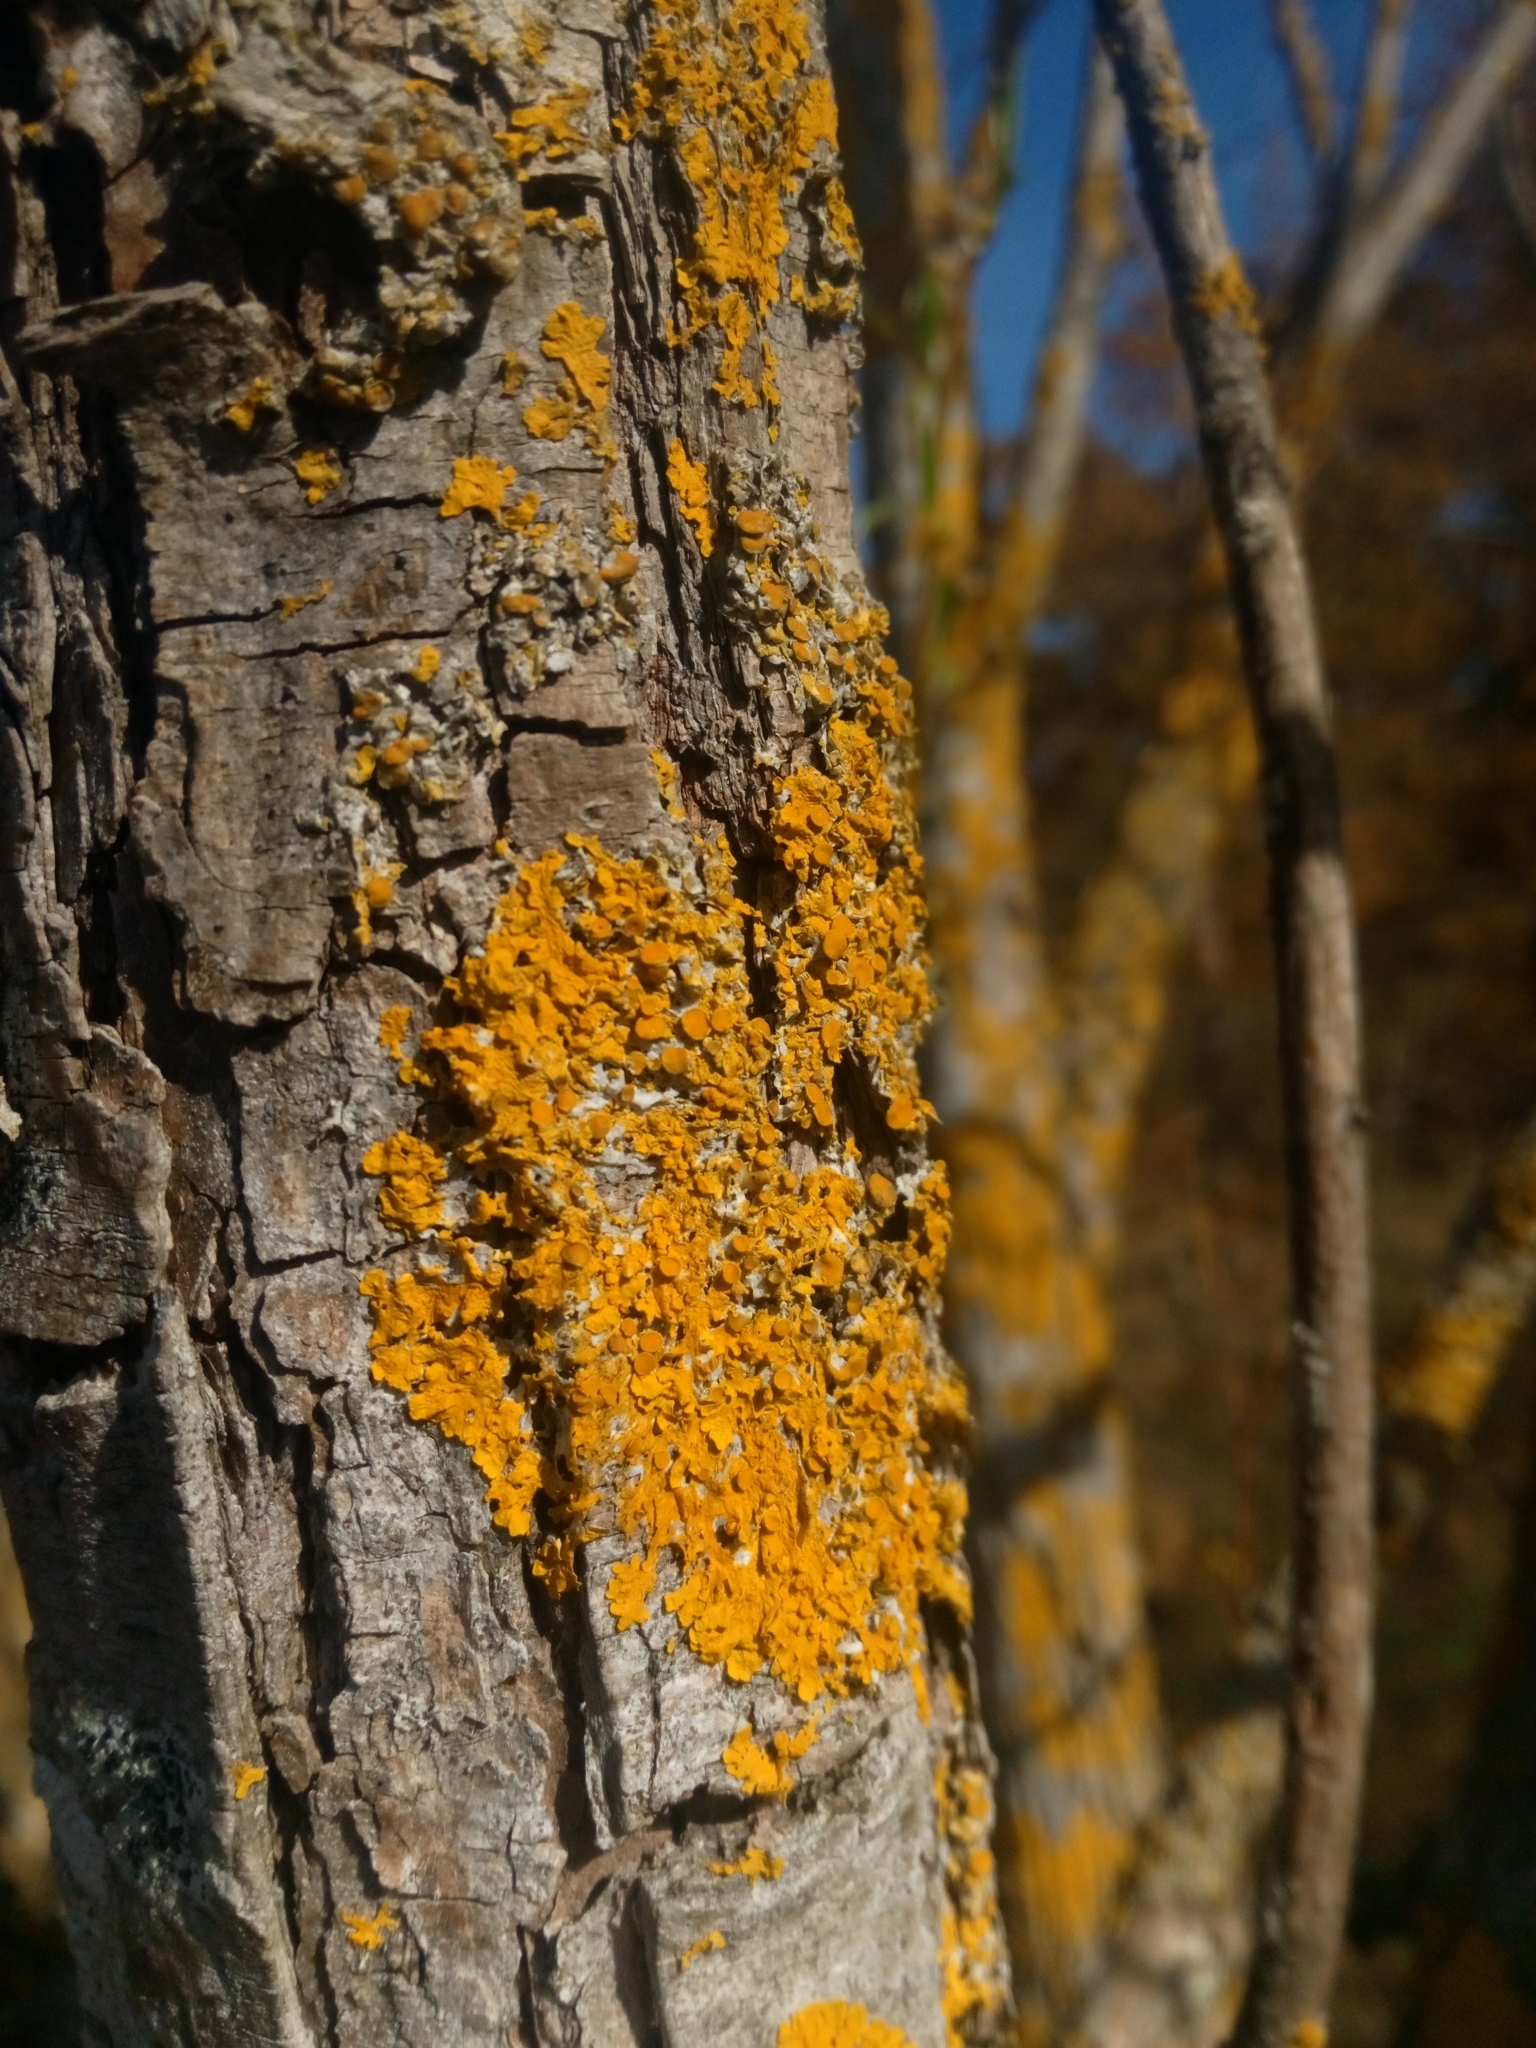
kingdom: Fungi
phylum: Ascomycota
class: Lecanoromycetes
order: Teloschistales
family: Teloschistaceae
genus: Xanthoria
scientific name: Xanthoria parietina
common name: Common orange lichen
